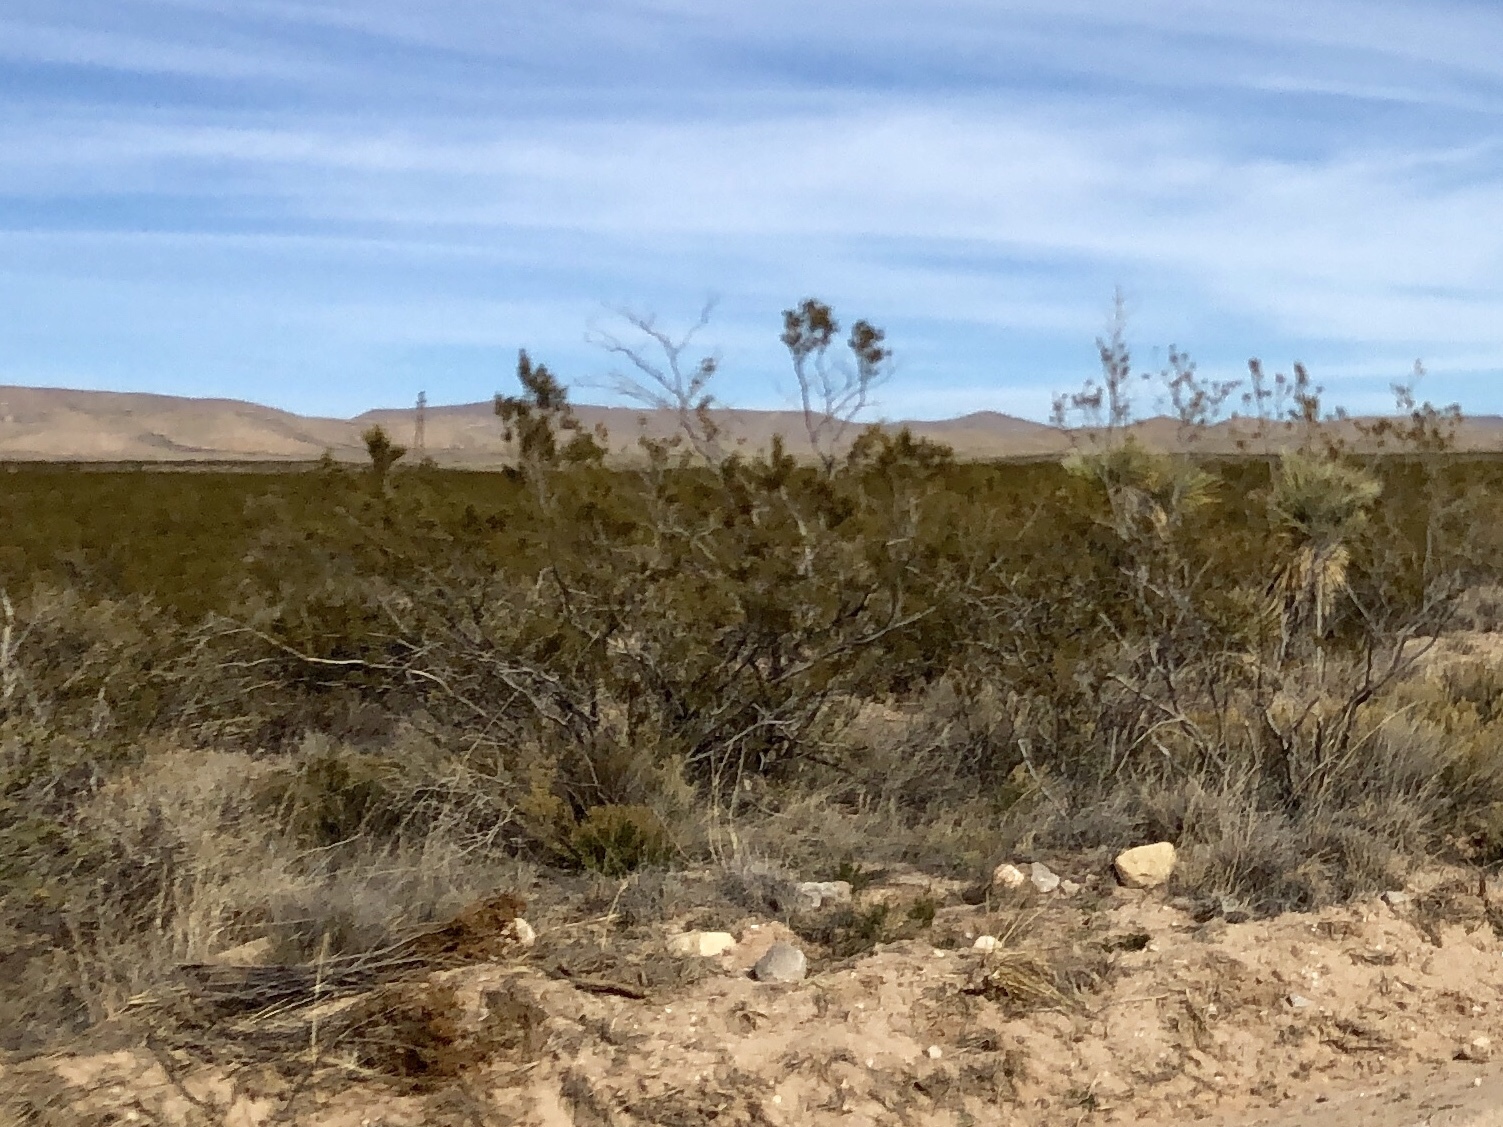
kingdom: Plantae
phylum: Tracheophyta
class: Magnoliopsida
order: Zygophyllales
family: Zygophyllaceae
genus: Larrea
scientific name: Larrea tridentata
